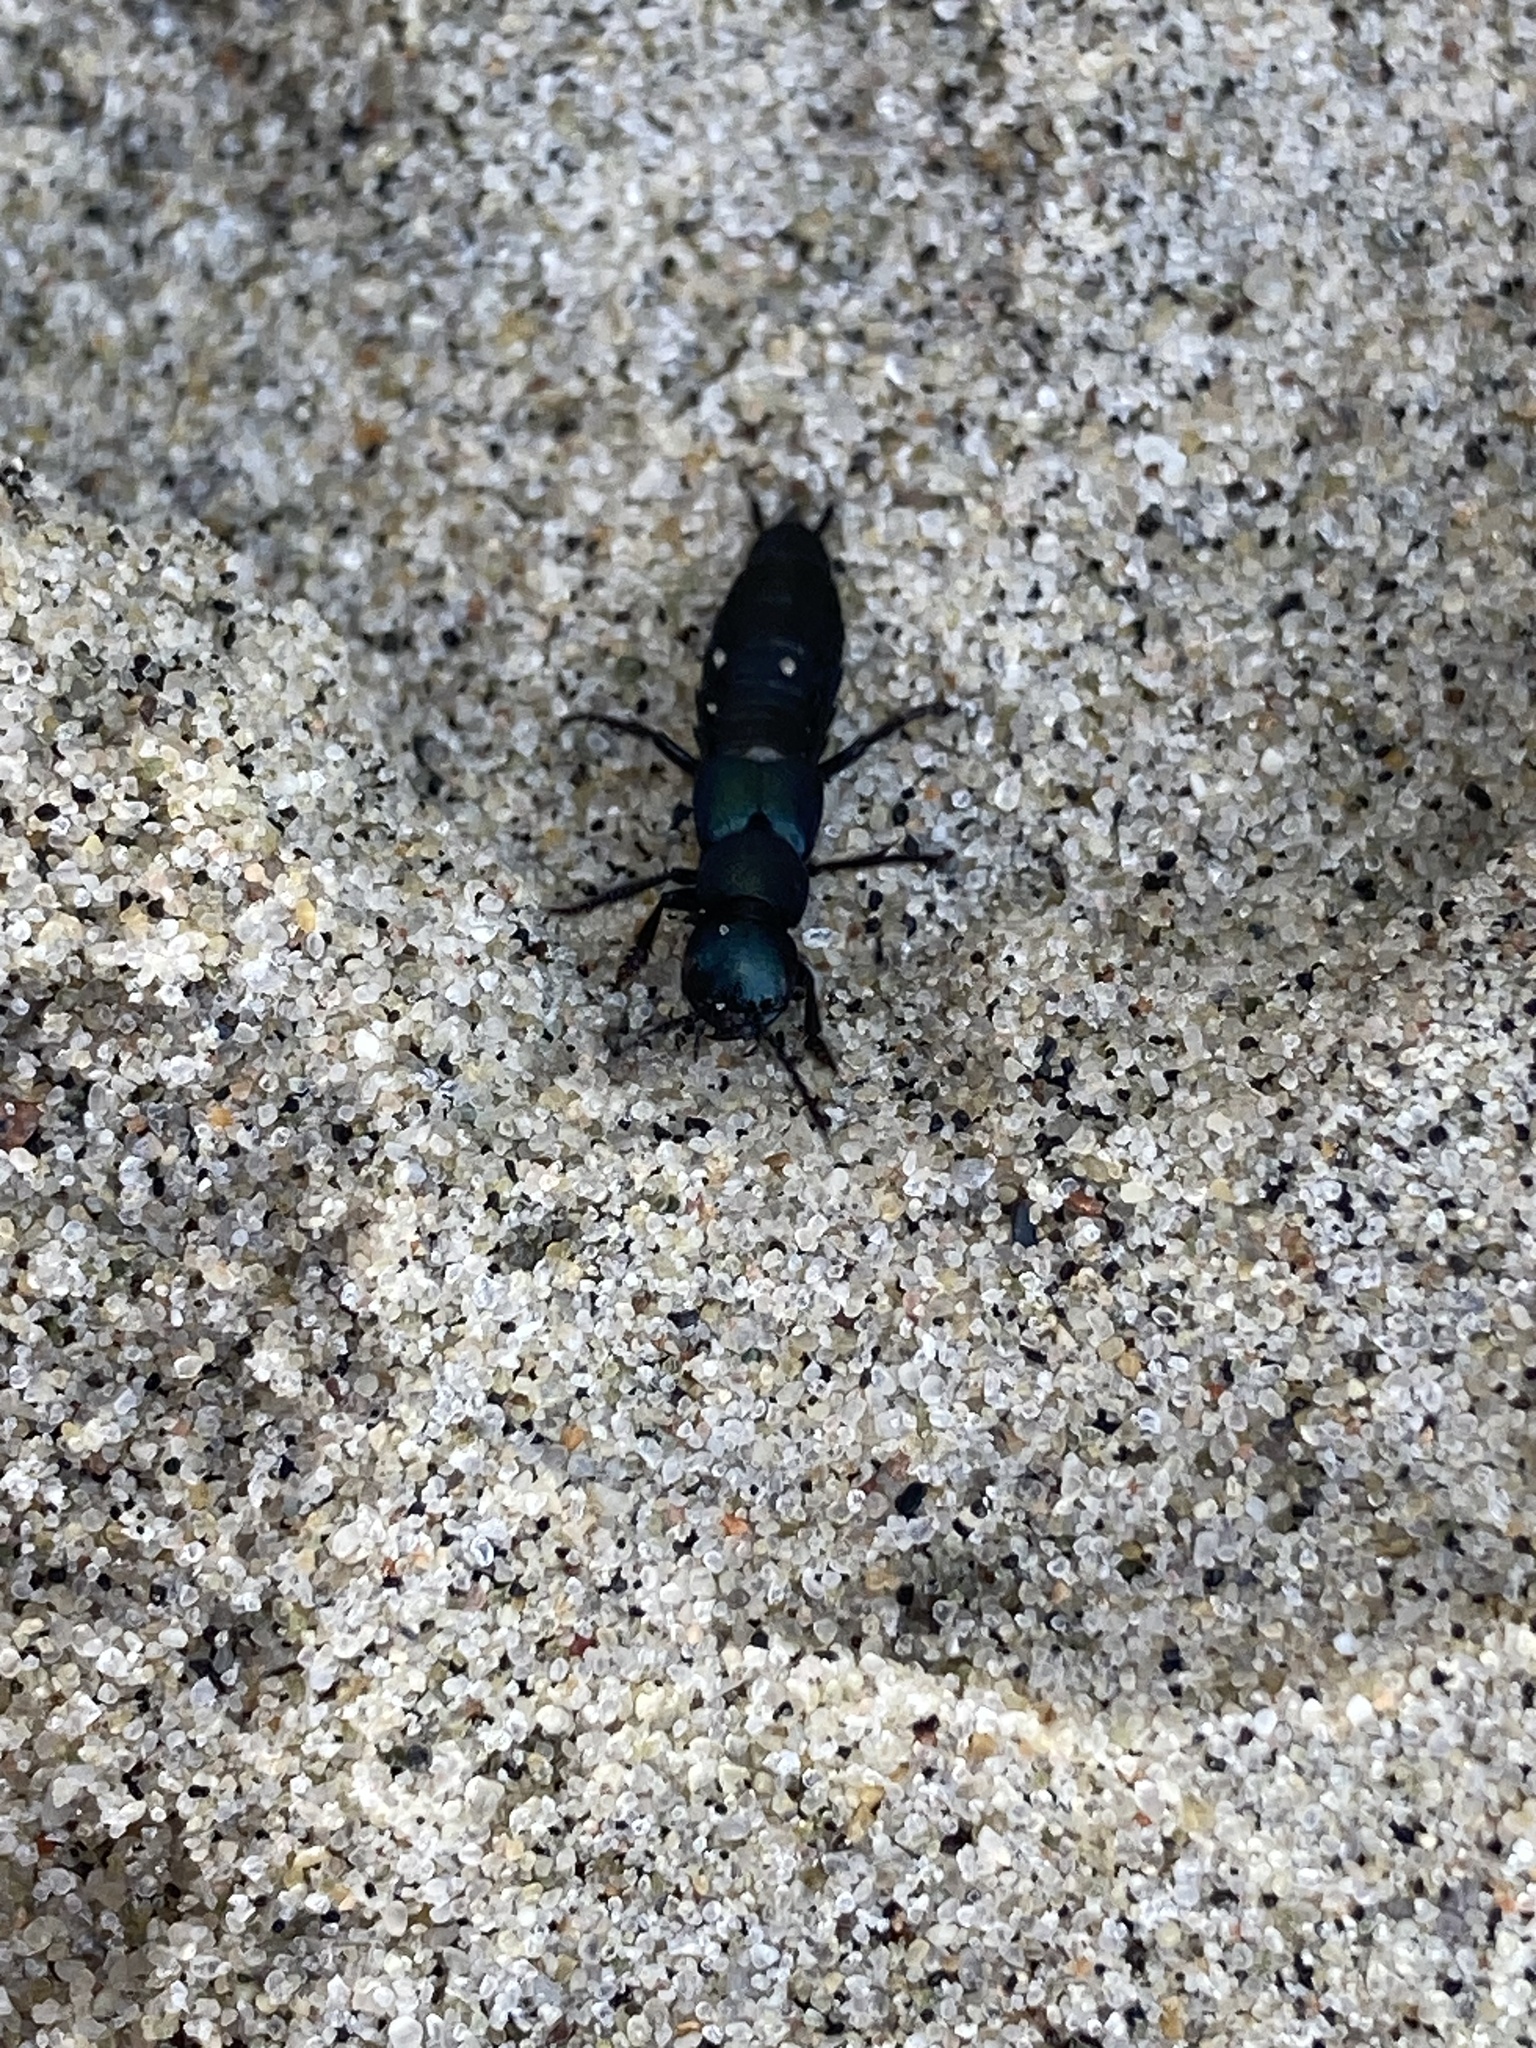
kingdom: Animalia
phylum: Arthropoda
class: Insecta
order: Coleoptera
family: Staphylinidae
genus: Ocypus
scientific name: Ocypus ophthalmicus
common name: Blue rove-beetle
